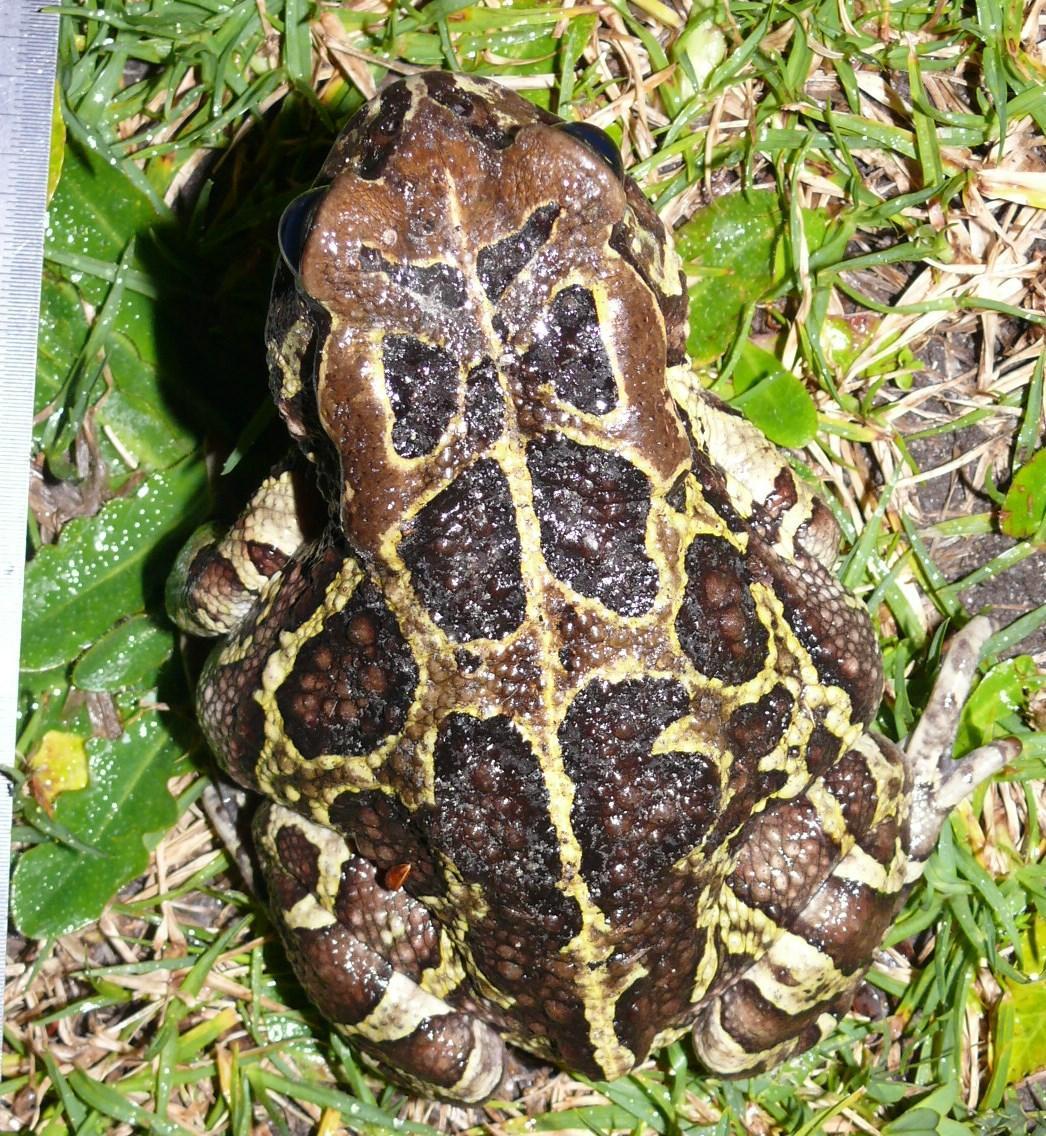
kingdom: Animalia
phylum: Chordata
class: Amphibia
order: Anura
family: Bufonidae
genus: Sclerophrys
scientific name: Sclerophrys pantherina
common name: Panther toad
